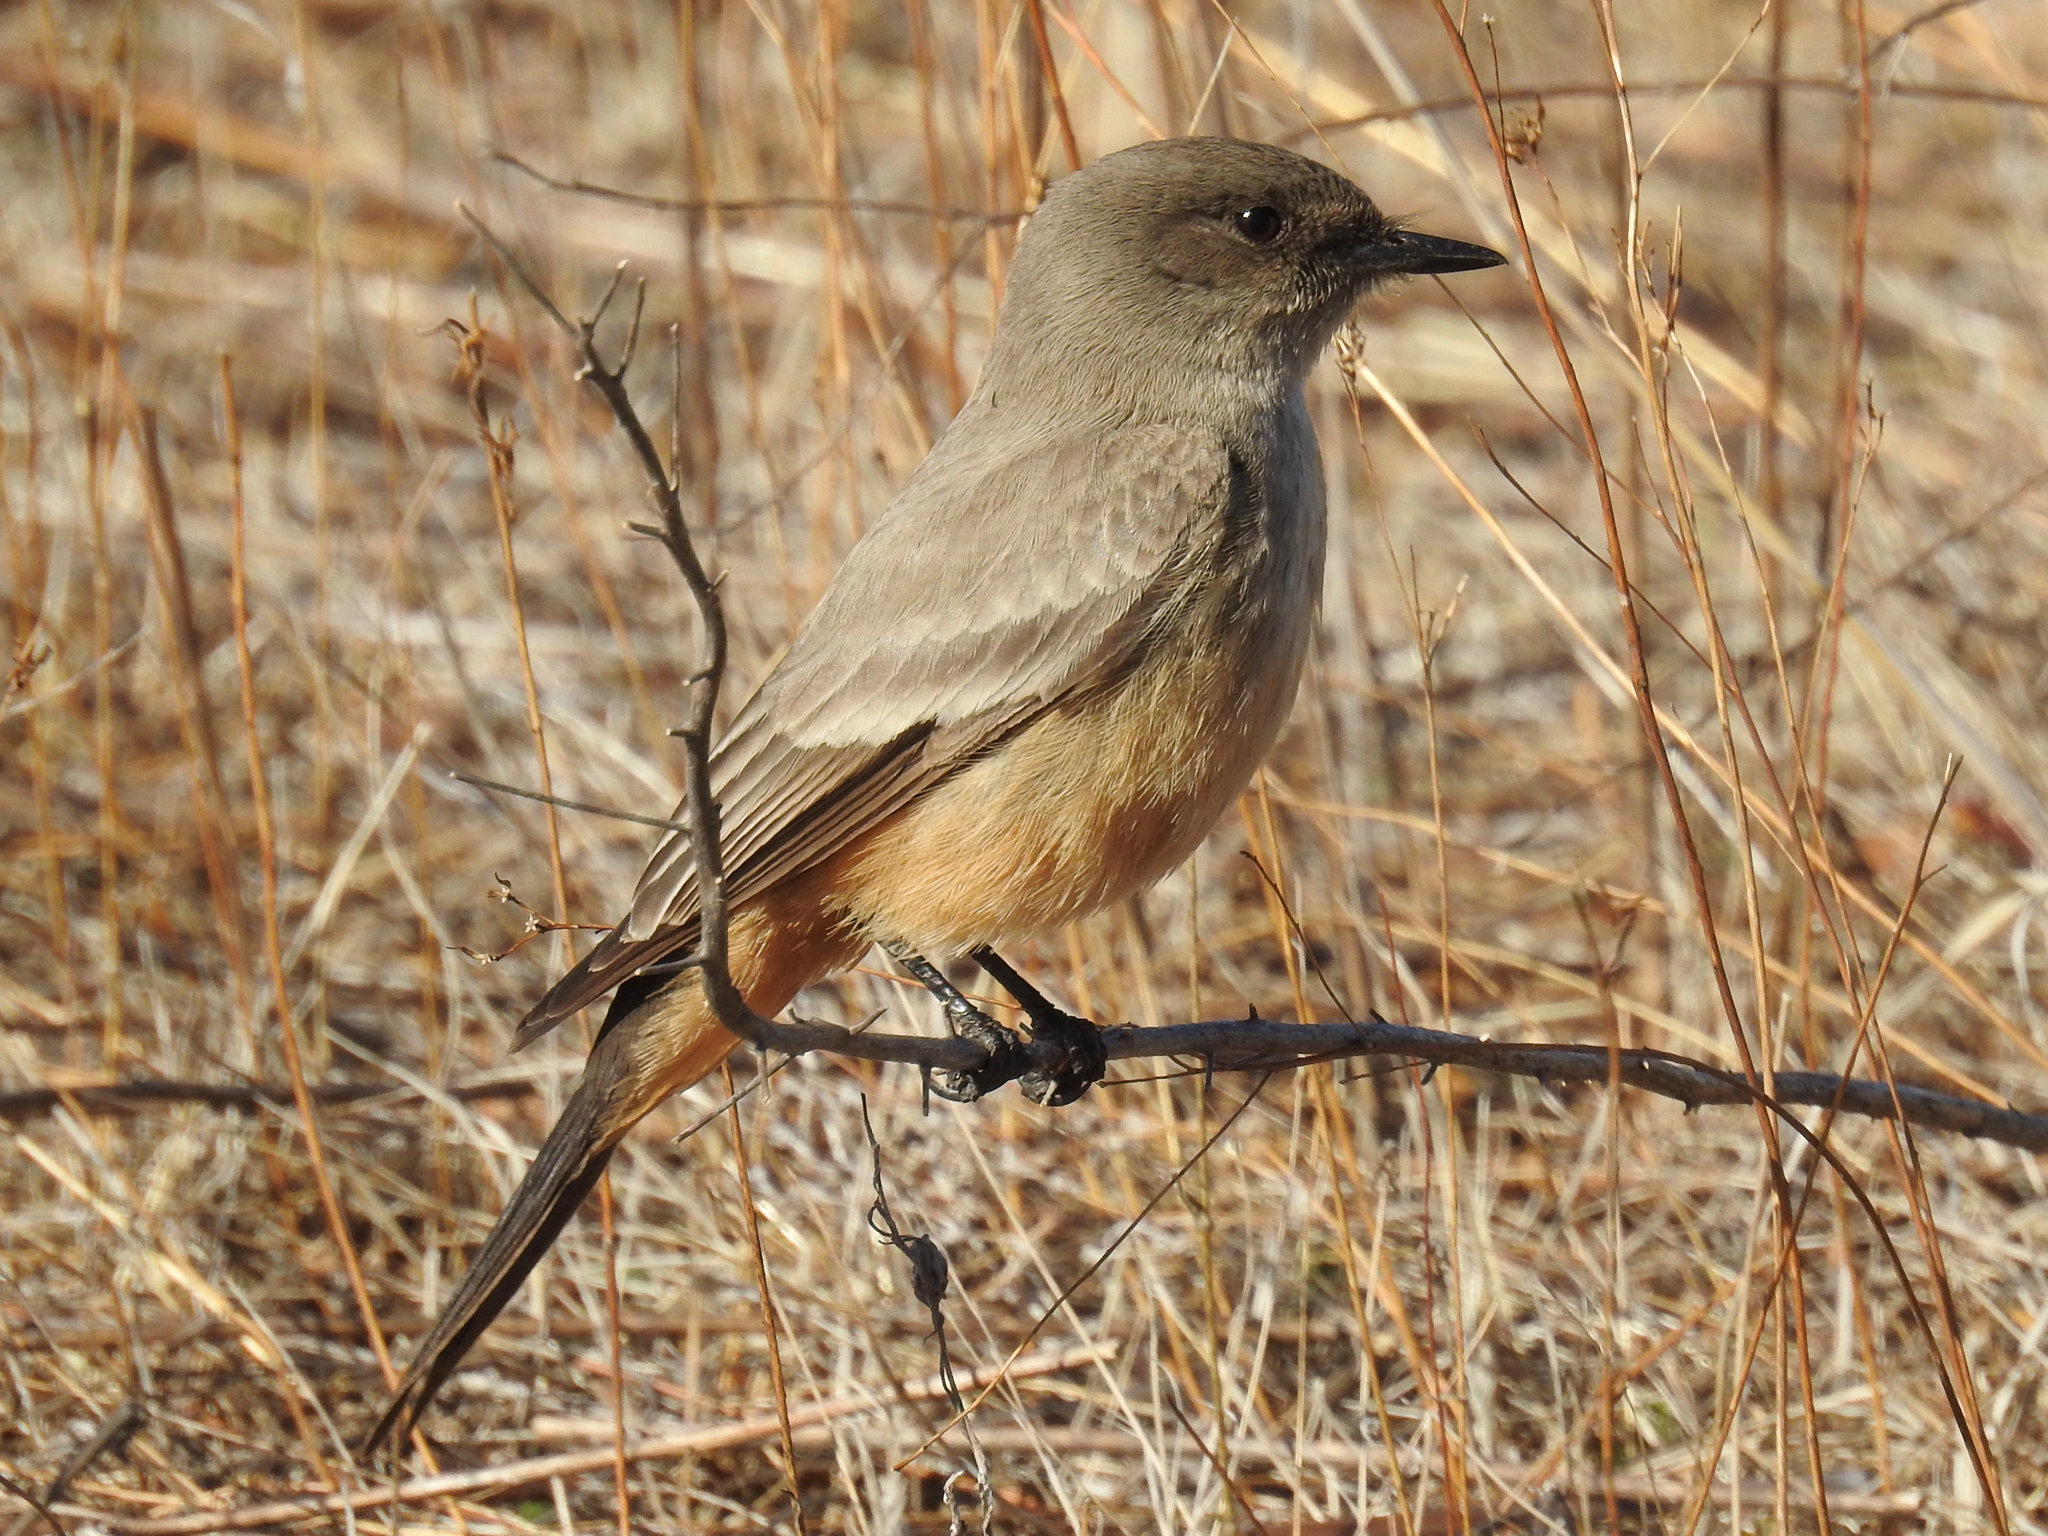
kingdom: Animalia
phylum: Chordata
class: Aves
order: Passeriformes
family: Tyrannidae
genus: Sayornis
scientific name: Sayornis saya
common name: Say's phoebe
